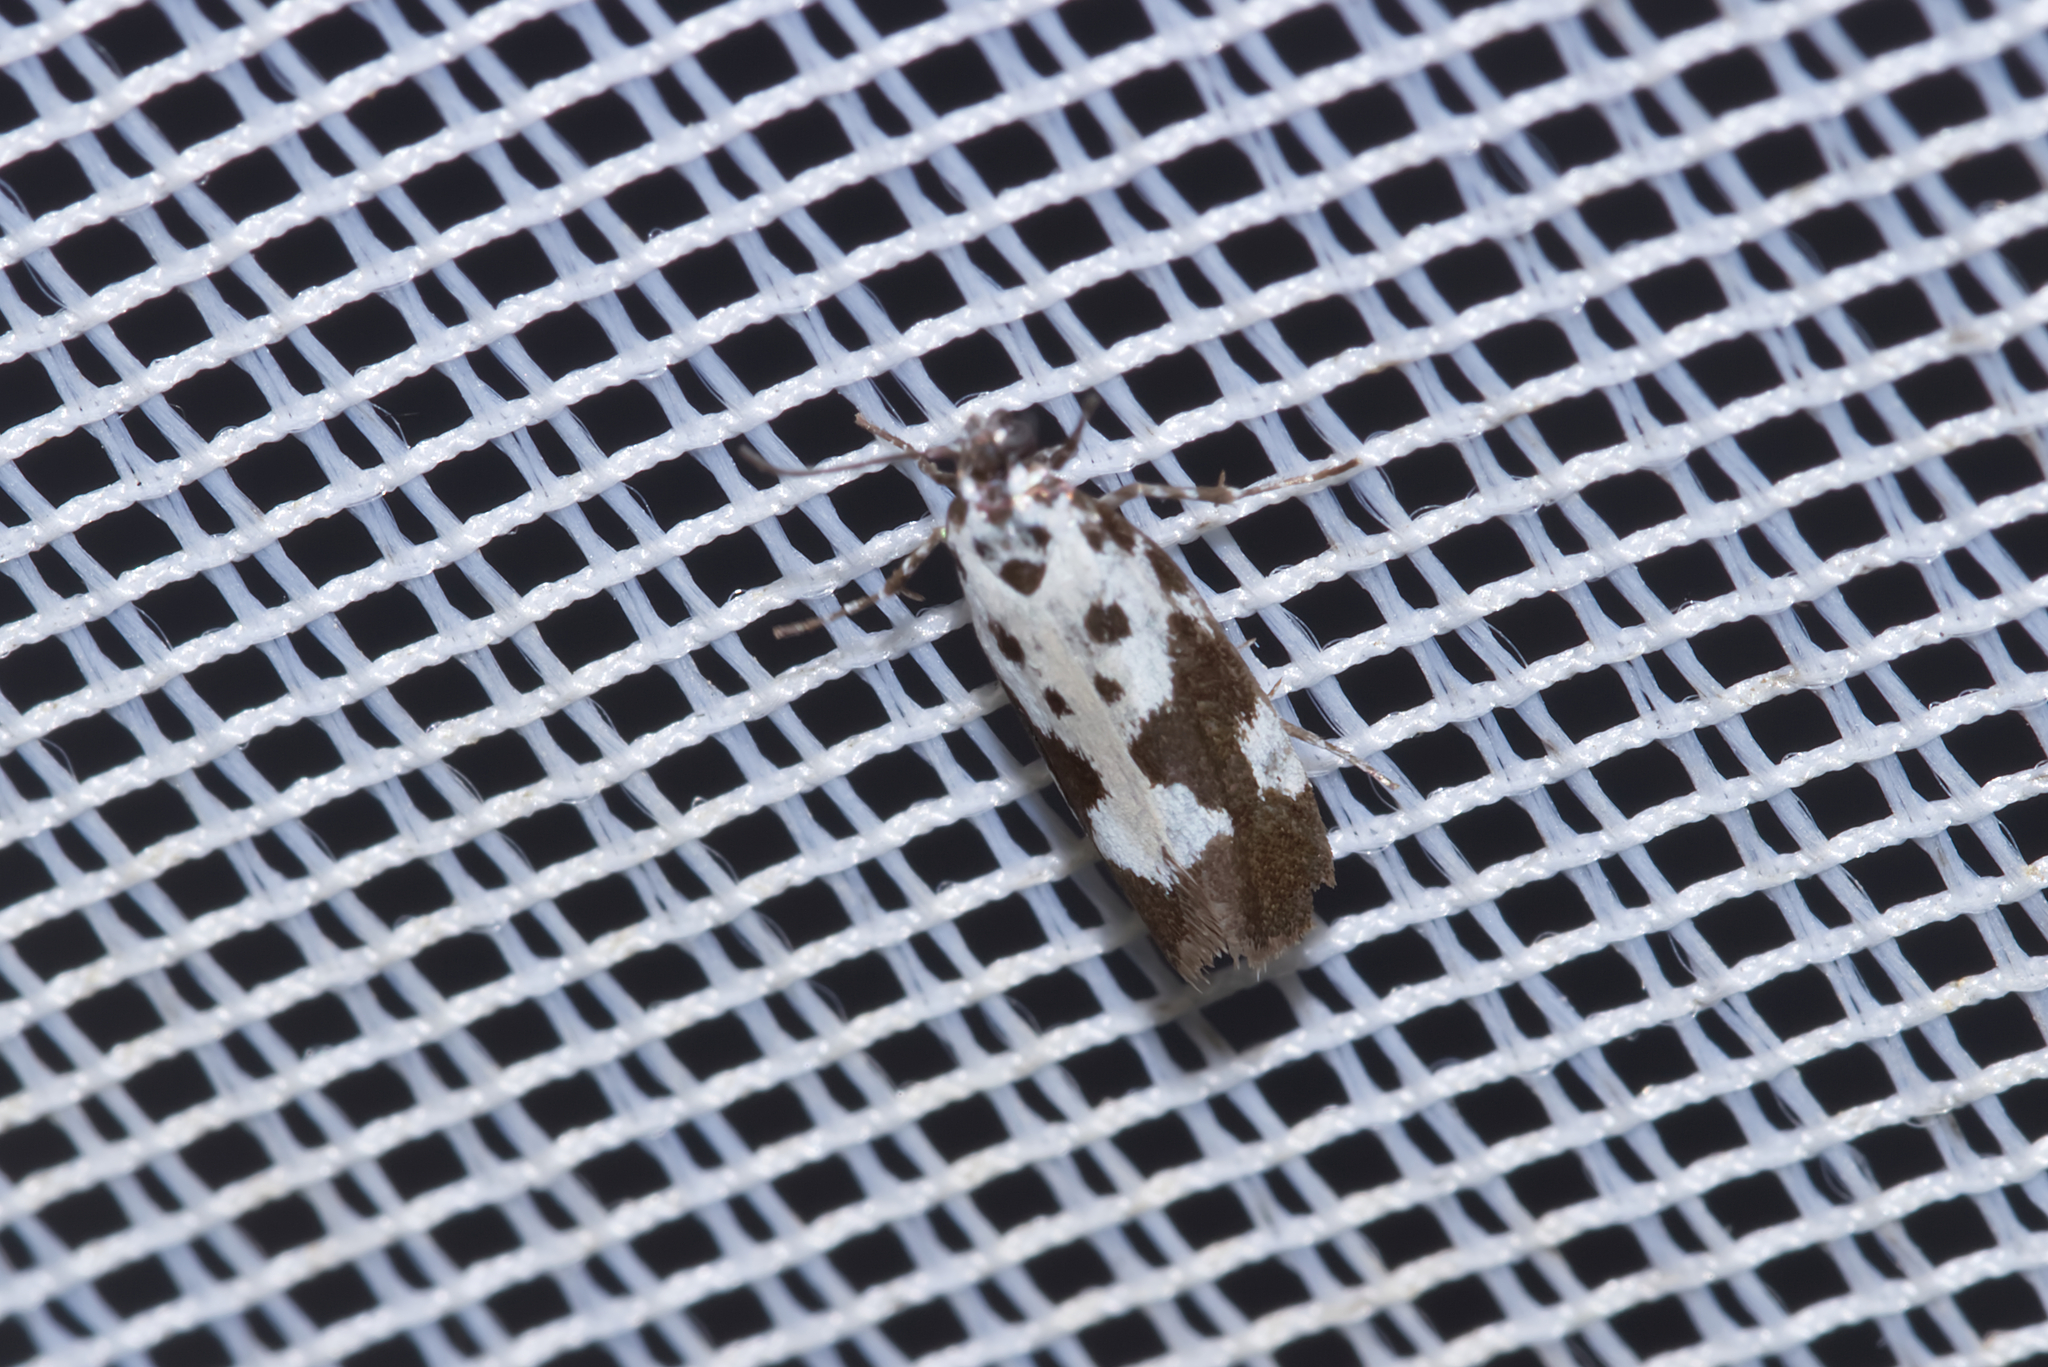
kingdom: Animalia
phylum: Arthropoda
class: Insecta
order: Lepidoptera
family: Ethmiidae
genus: Ethmia
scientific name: Ethmia quadrillella
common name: Comfrey ermel
